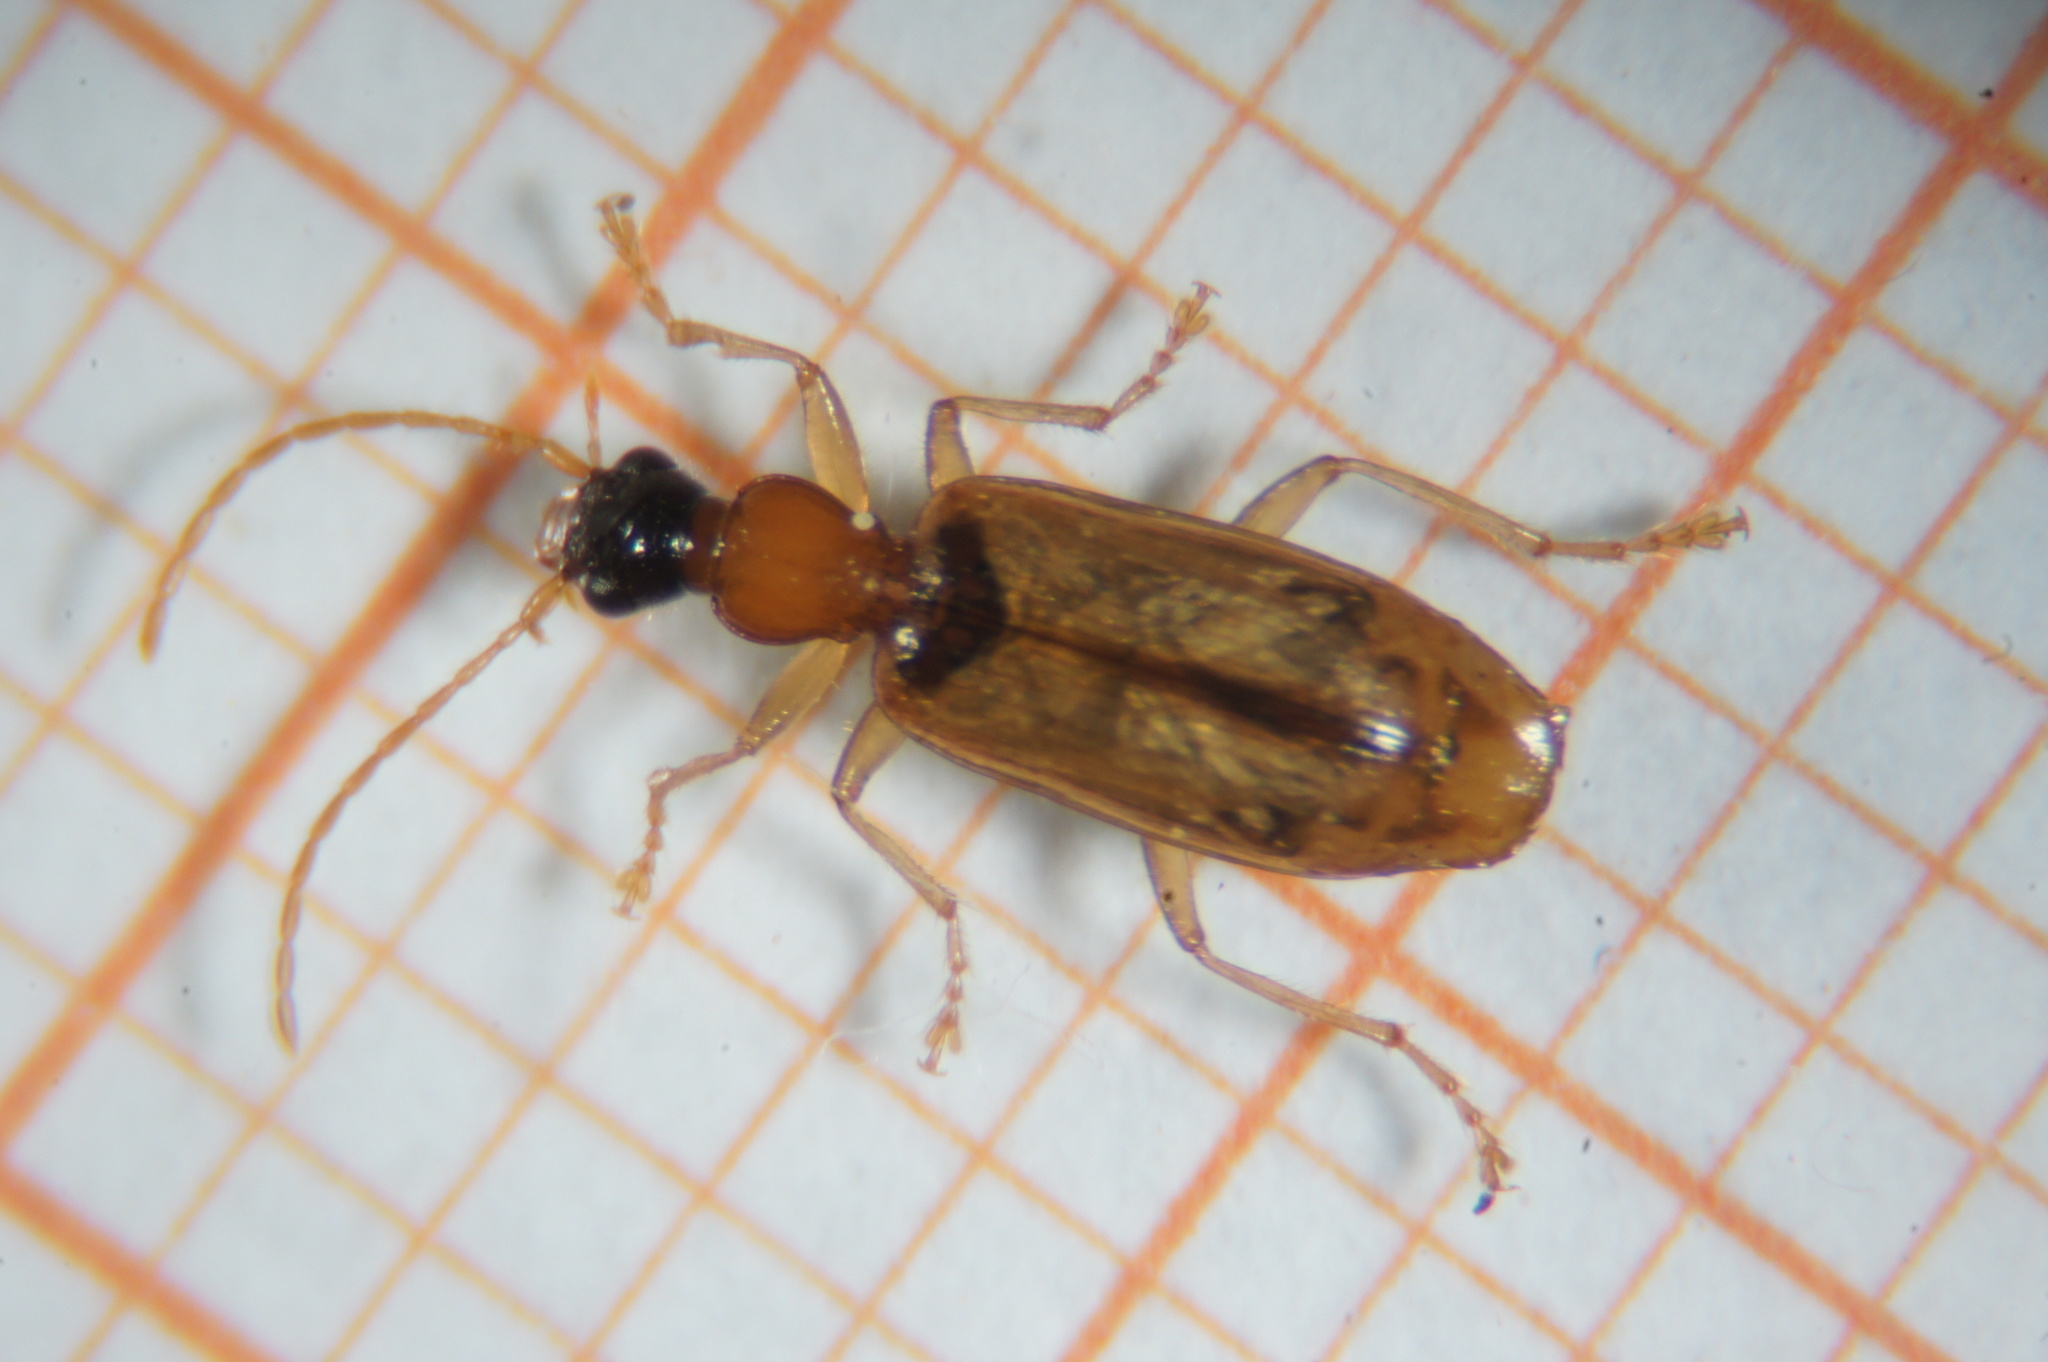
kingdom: Animalia
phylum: Arthropoda
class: Insecta
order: Coleoptera
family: Carabidae
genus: Demetrias
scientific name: Demetrias atricapillus
